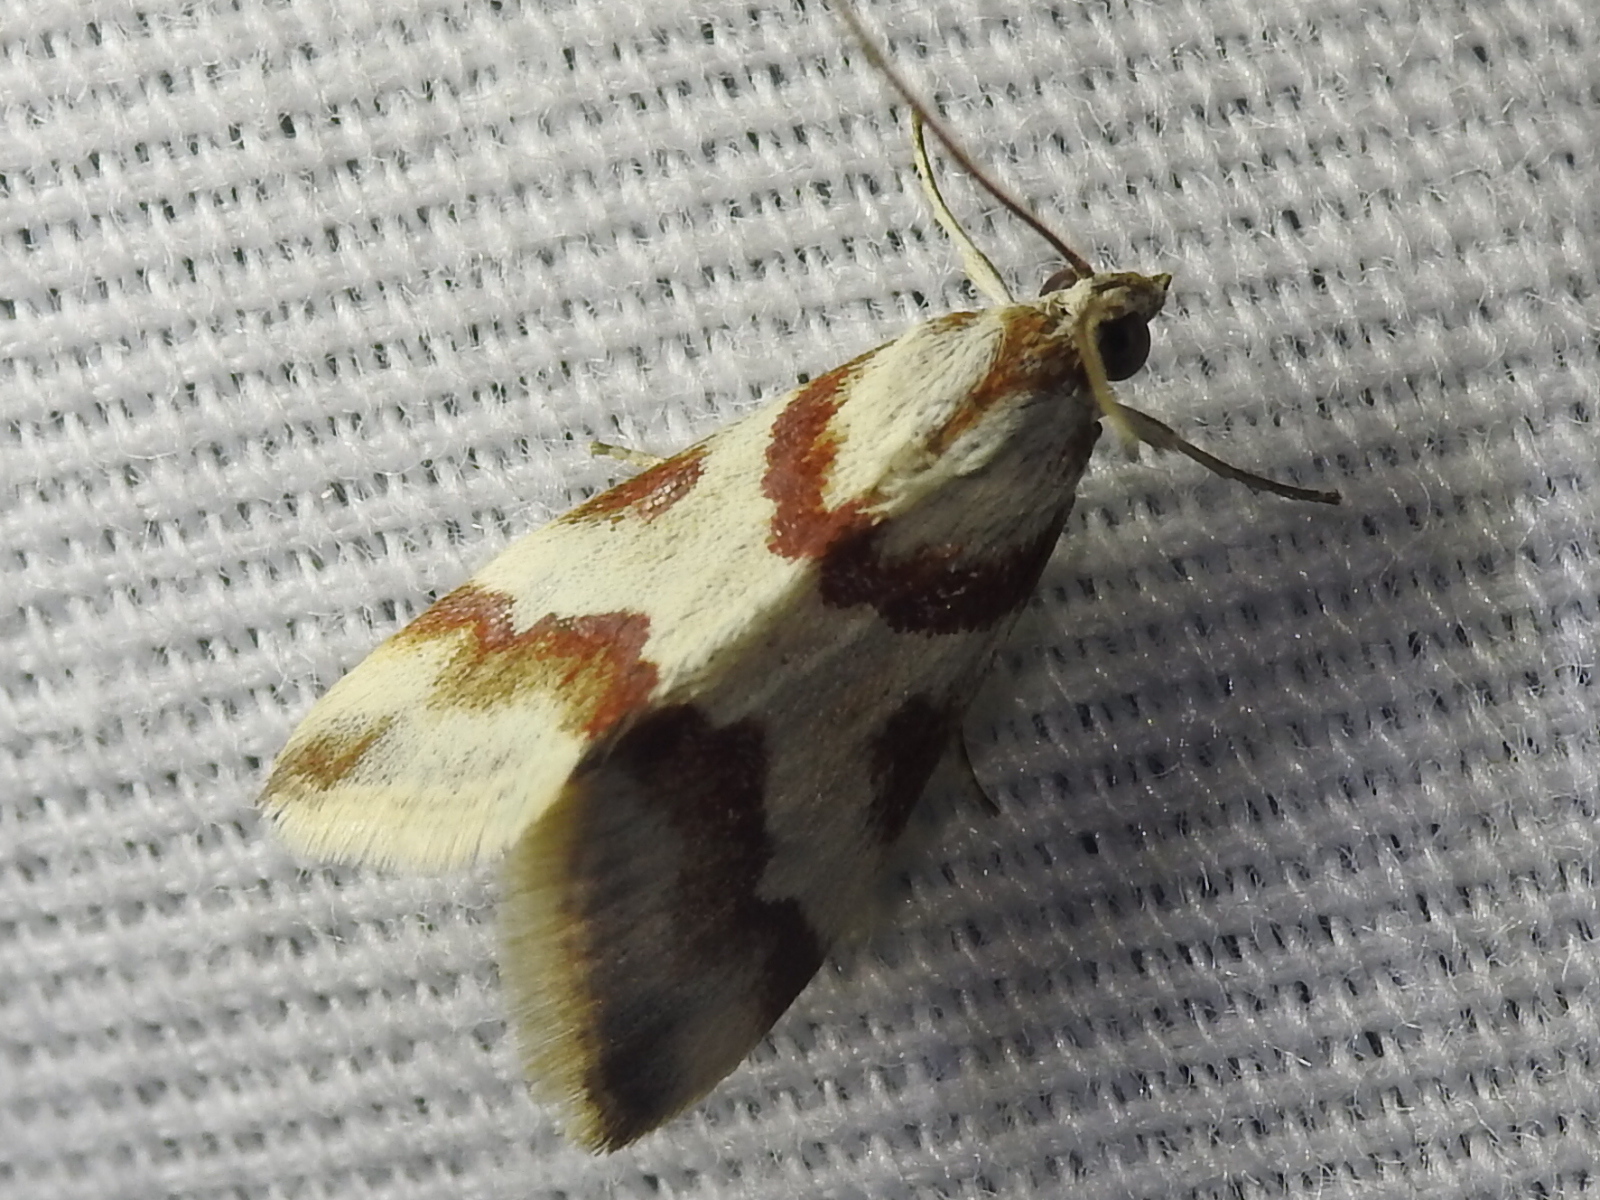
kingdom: Animalia
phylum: Arthropoda
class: Insecta
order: Lepidoptera
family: Crambidae
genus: Noctuelia
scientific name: Noctuelia Mimoschinia rufofascialis
